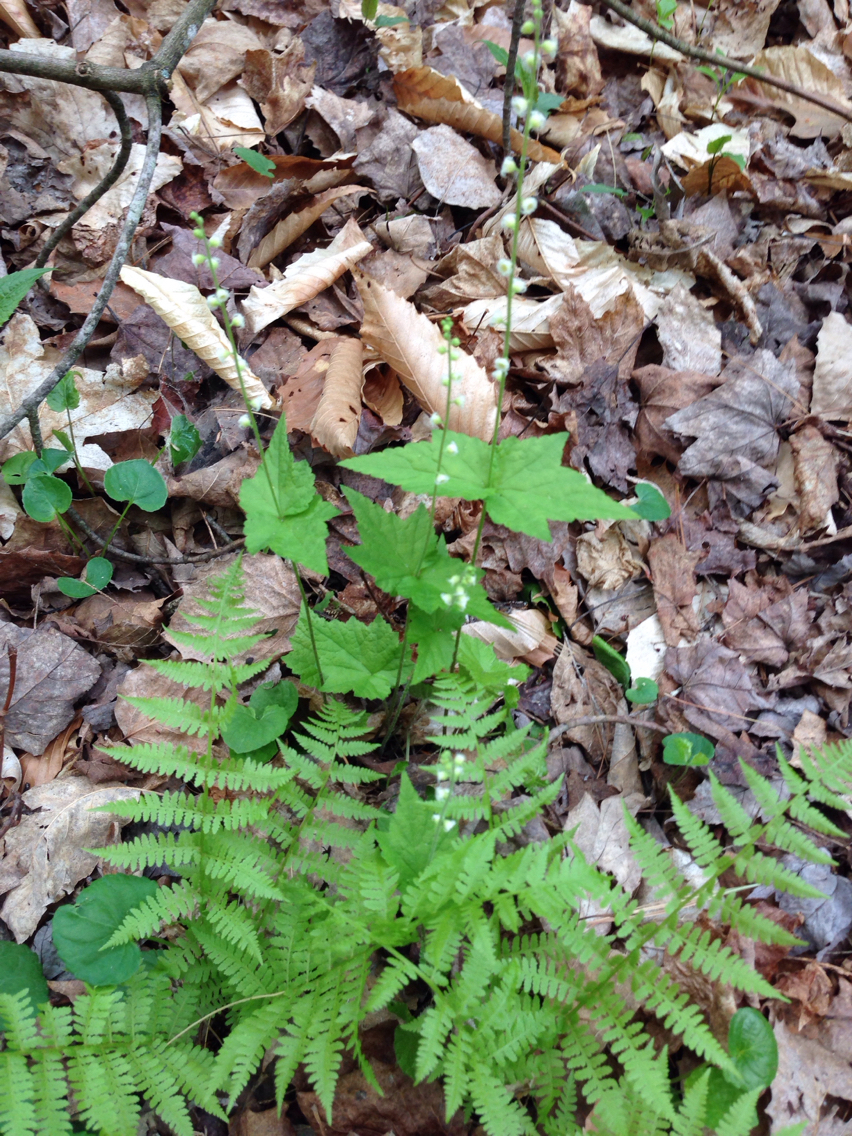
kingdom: Plantae
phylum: Tracheophyta
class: Magnoliopsida
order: Saxifragales
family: Saxifragaceae
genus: Mitella
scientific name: Mitella diphylla
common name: Coolwort
